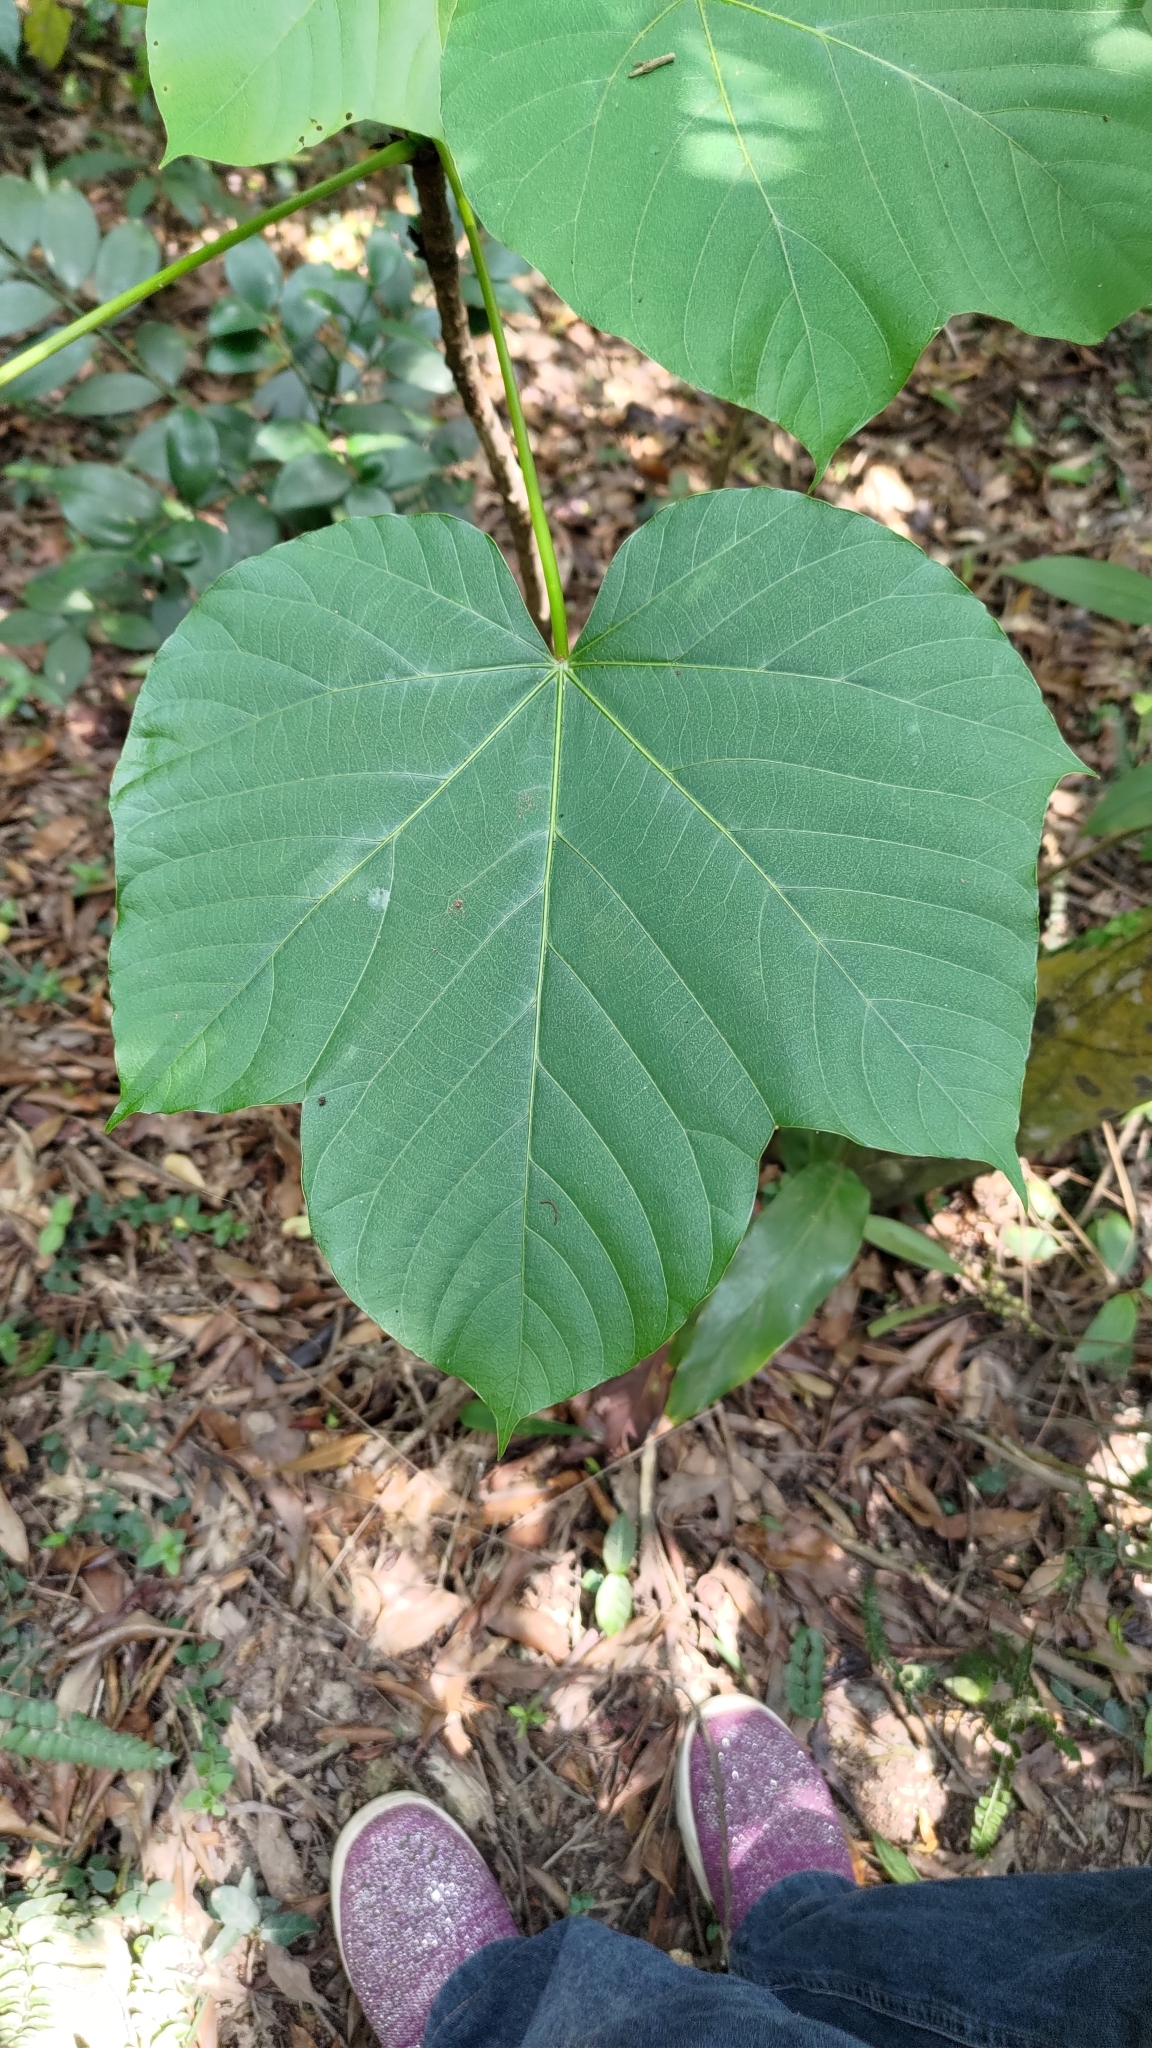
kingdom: Plantae
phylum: Tracheophyta
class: Magnoliopsida
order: Malpighiales
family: Euphorbiaceae
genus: Vernicia
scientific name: Vernicia fordii
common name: Tungoil tree
